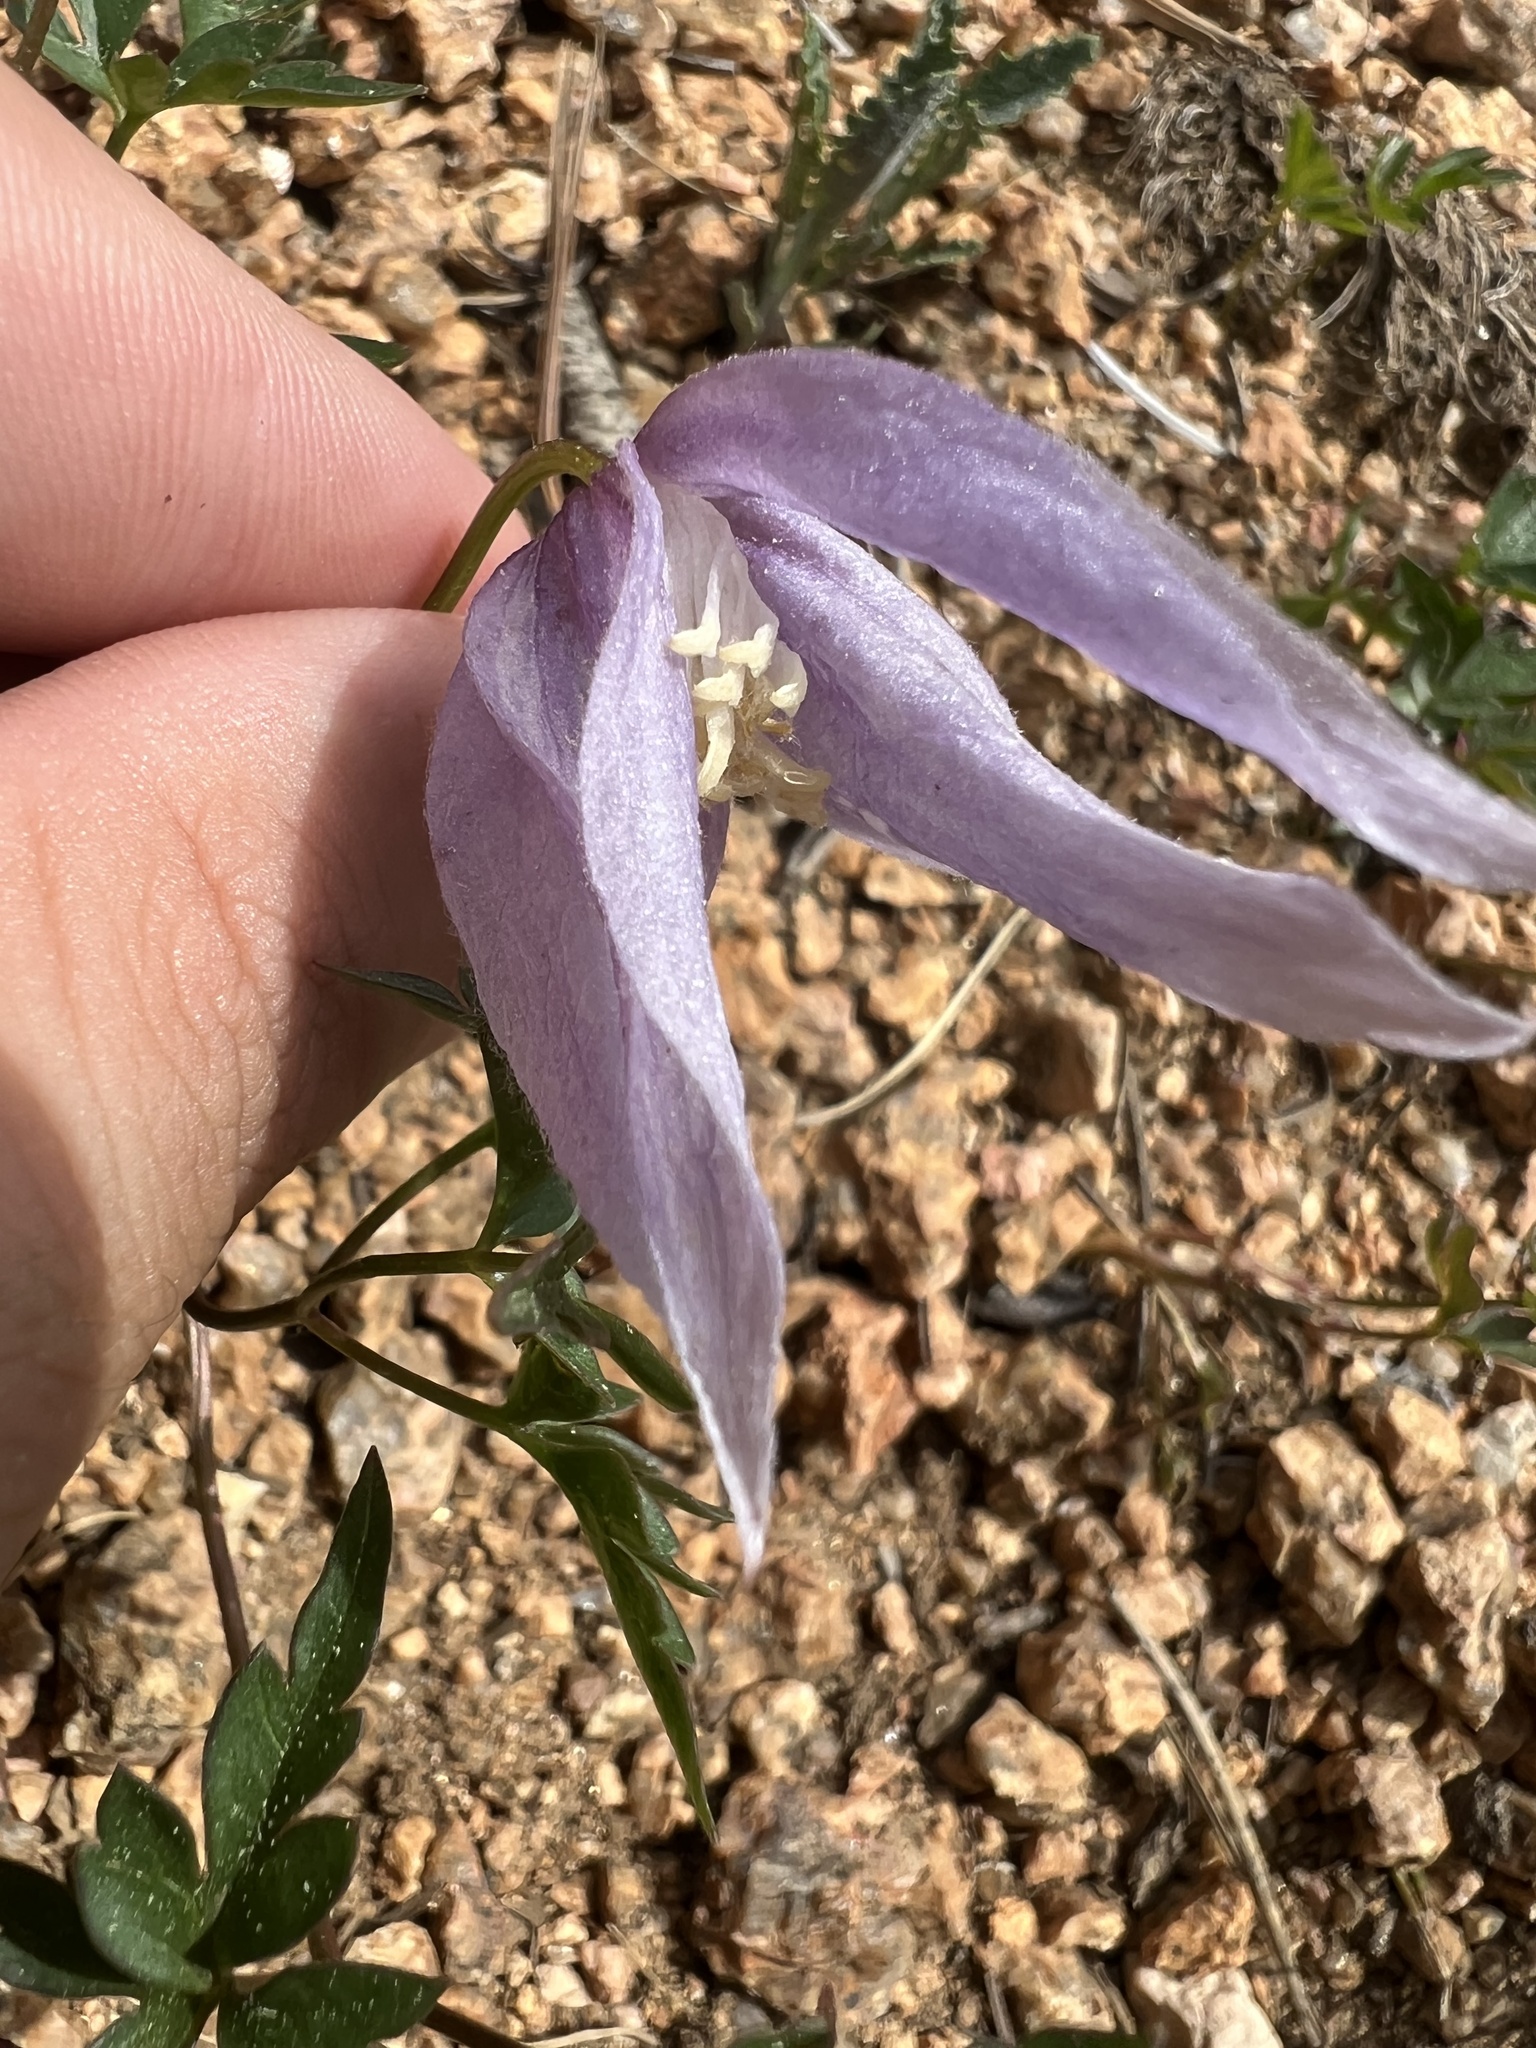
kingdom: Plantae
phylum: Tracheophyta
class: Magnoliopsida
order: Ranunculales
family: Ranunculaceae
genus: Clematis
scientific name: Clematis columbiana
